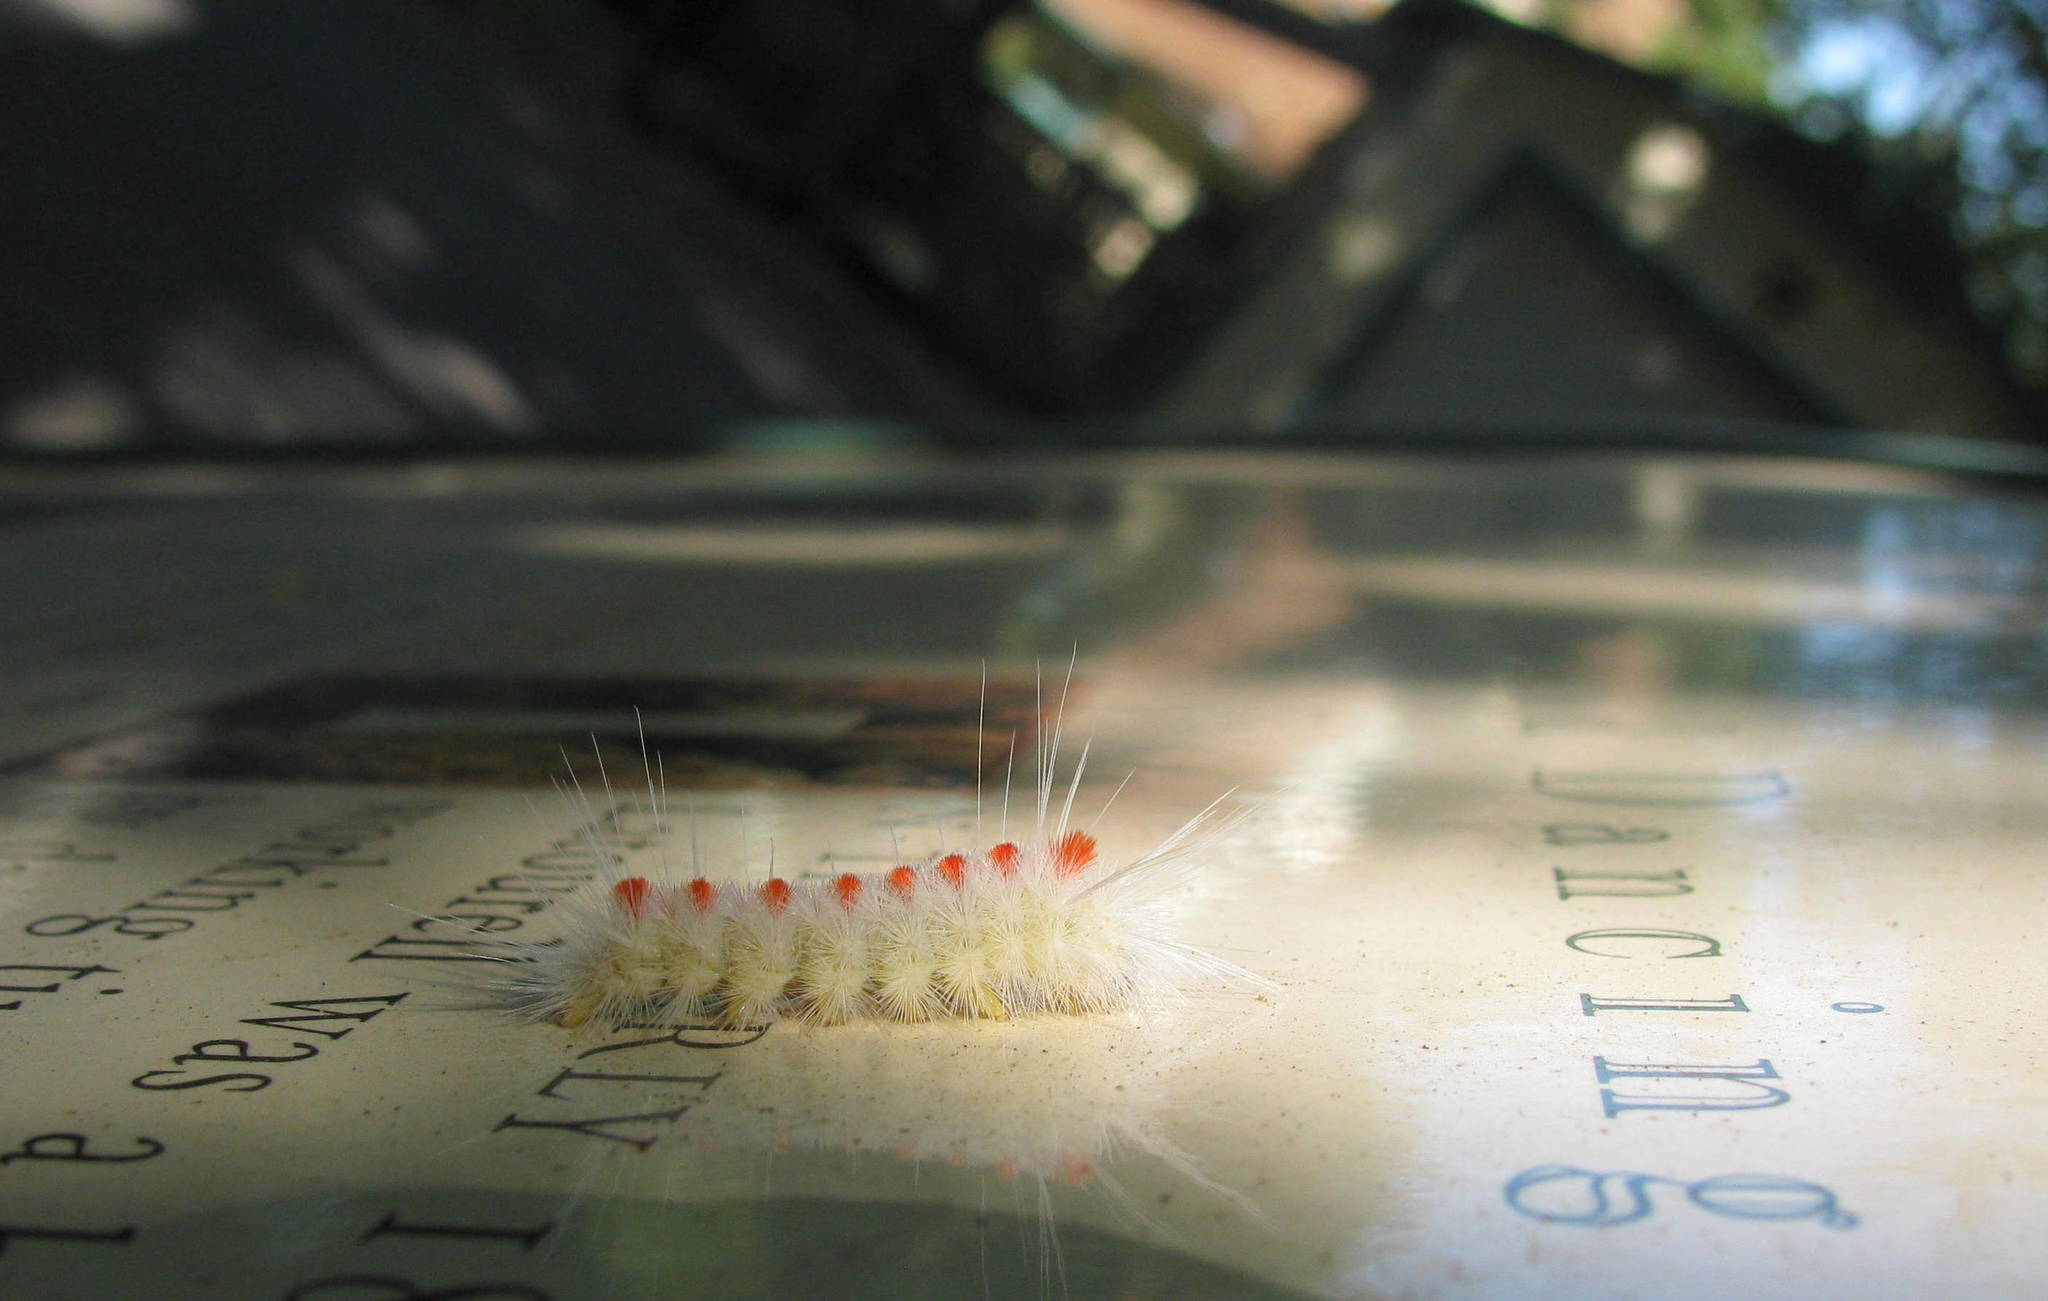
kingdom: Animalia
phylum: Arthropoda
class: Insecta
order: Lepidoptera
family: Erebidae
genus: Lophocampa
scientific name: Lophocampa maculata
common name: Spotted tussock moth
